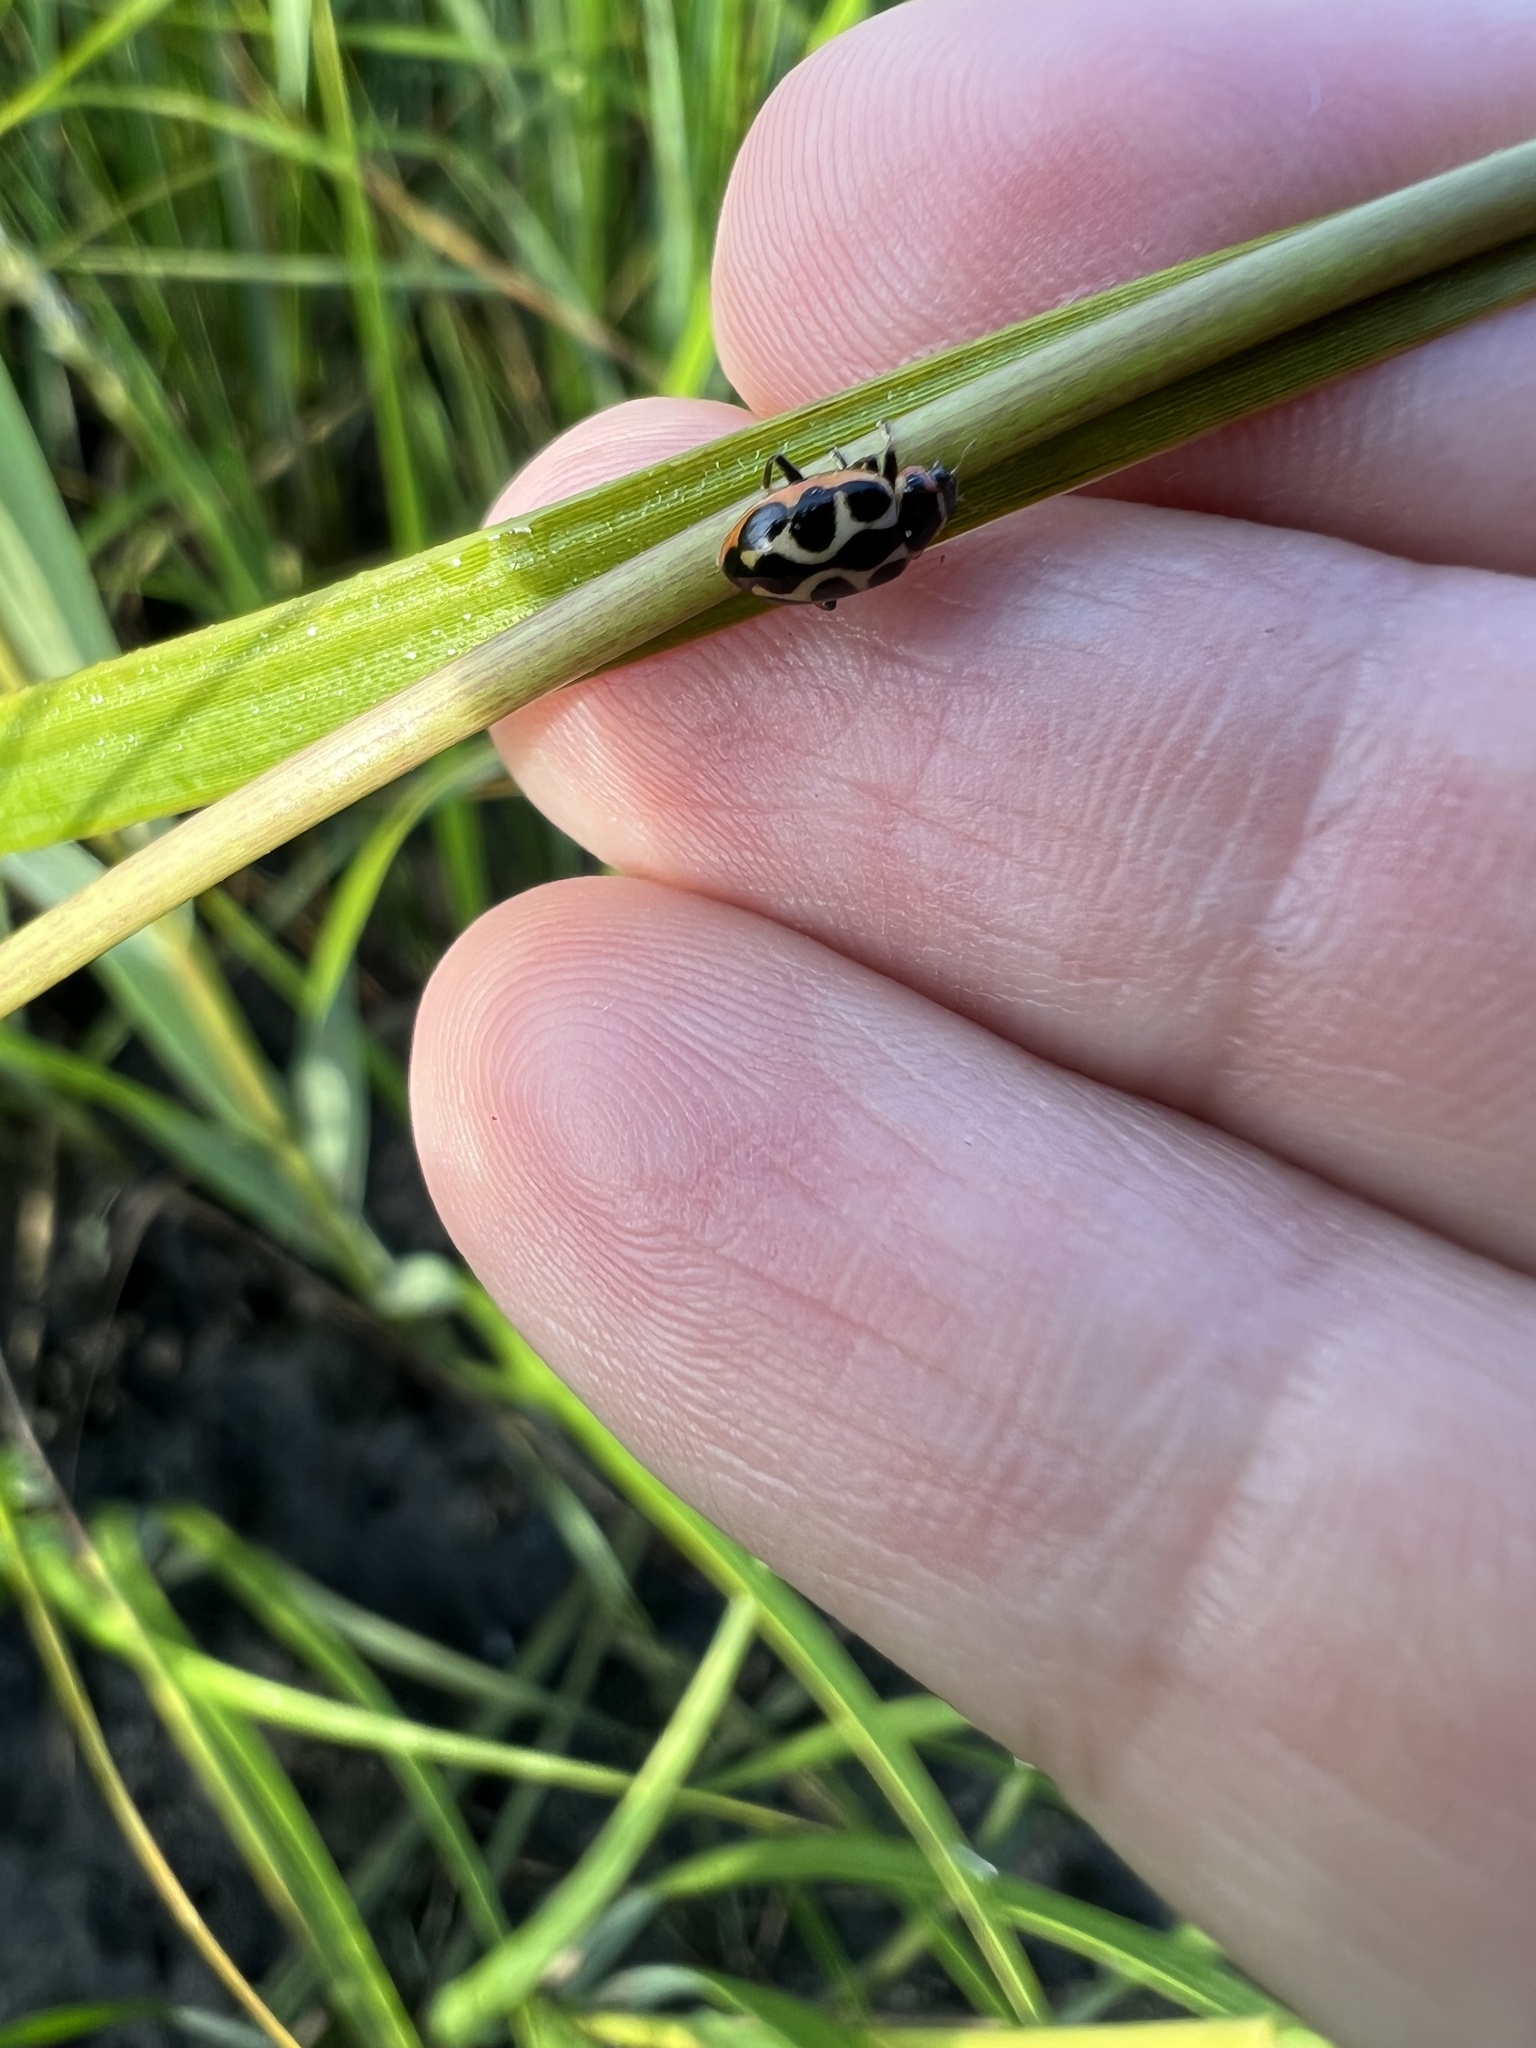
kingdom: Animalia
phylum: Arthropoda
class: Insecta
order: Coleoptera
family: Coccinellidae
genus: Naemia
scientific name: Naemia seriata
